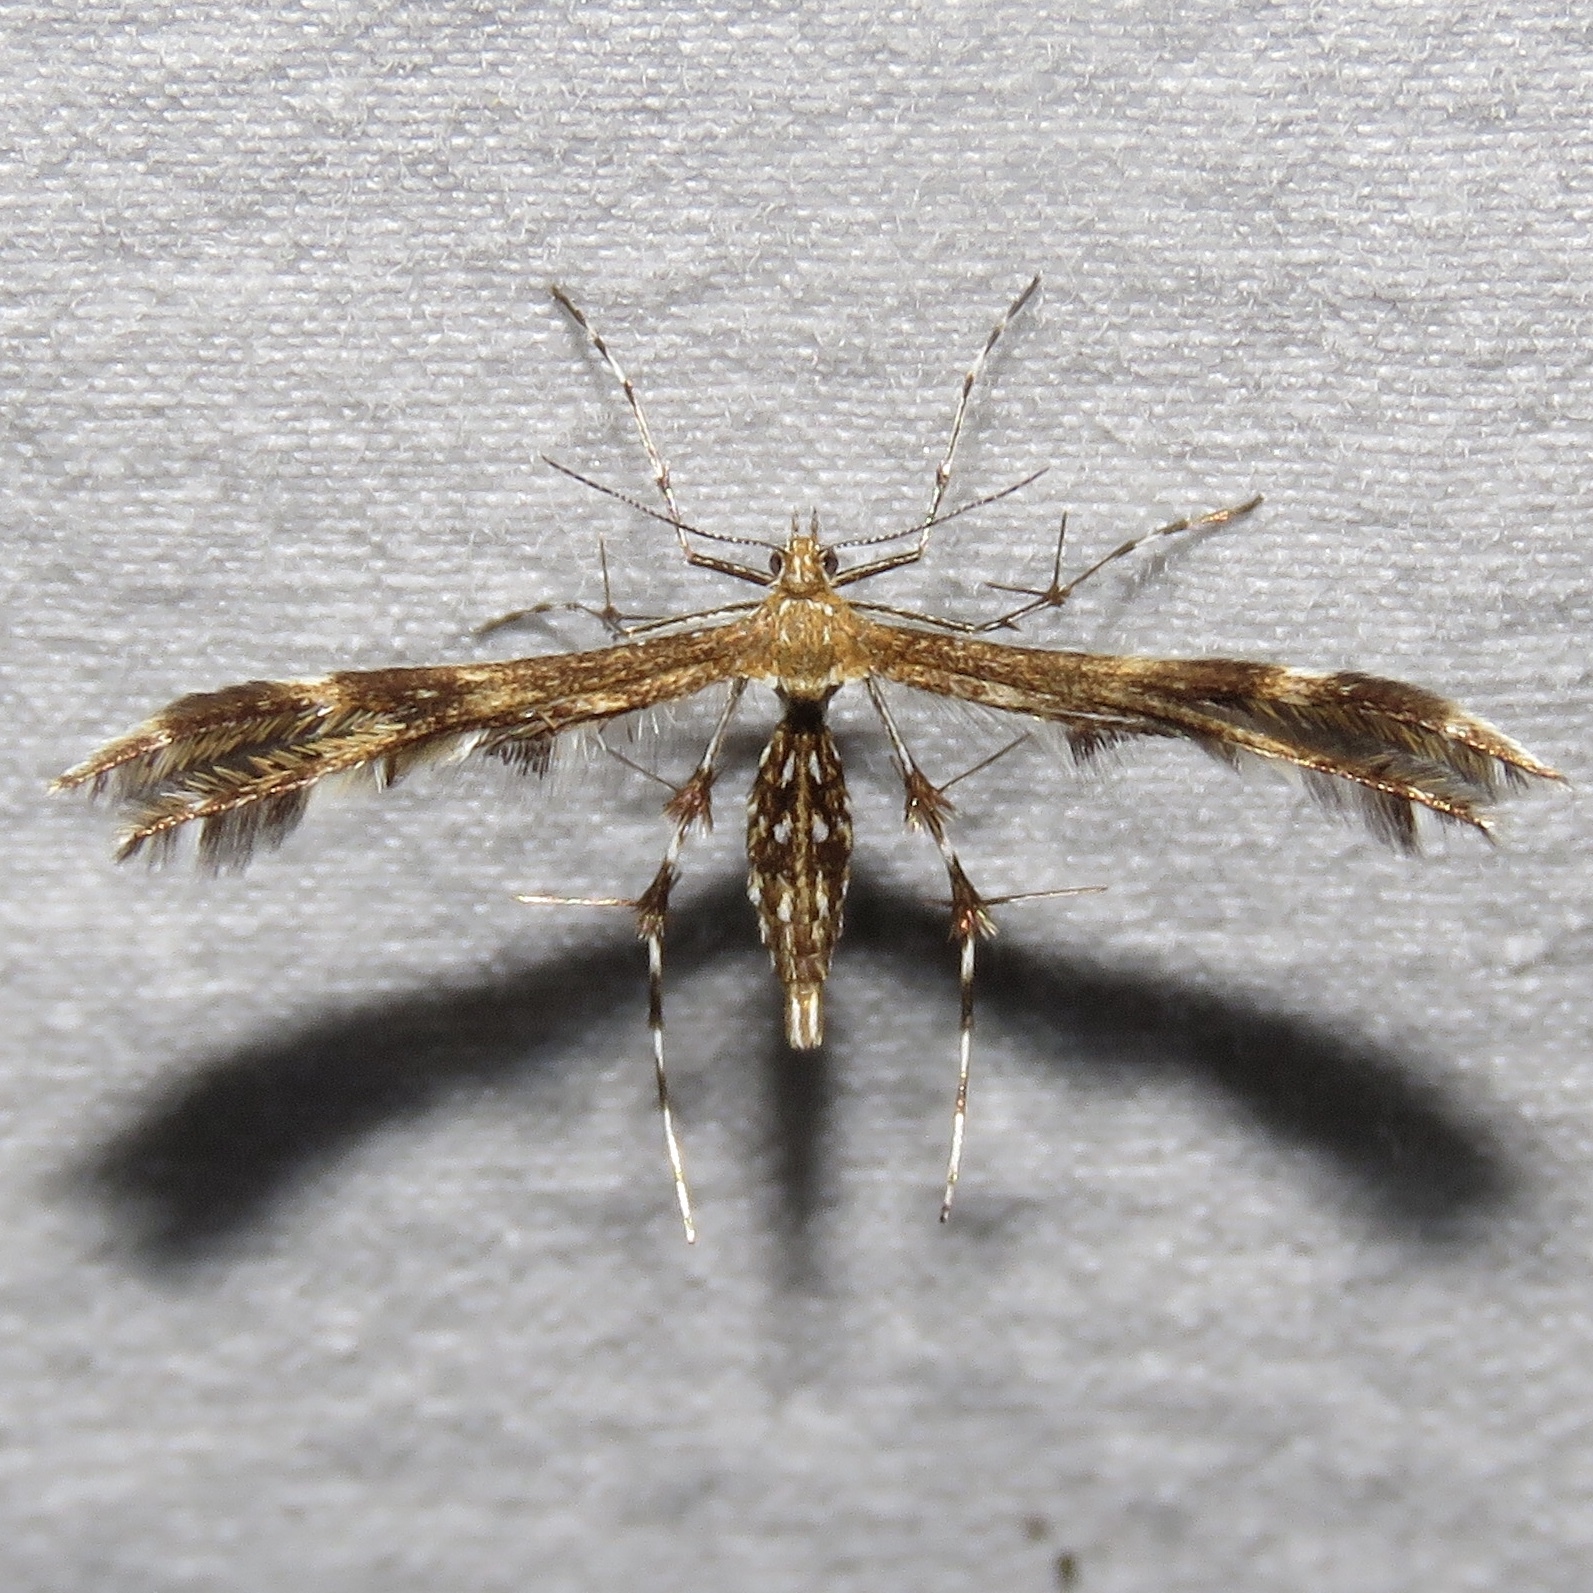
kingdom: Animalia
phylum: Arthropoda
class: Insecta
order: Lepidoptera
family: Pterophoridae
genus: Dejongia
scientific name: Dejongia lobidactylus
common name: Lobed plume moth
